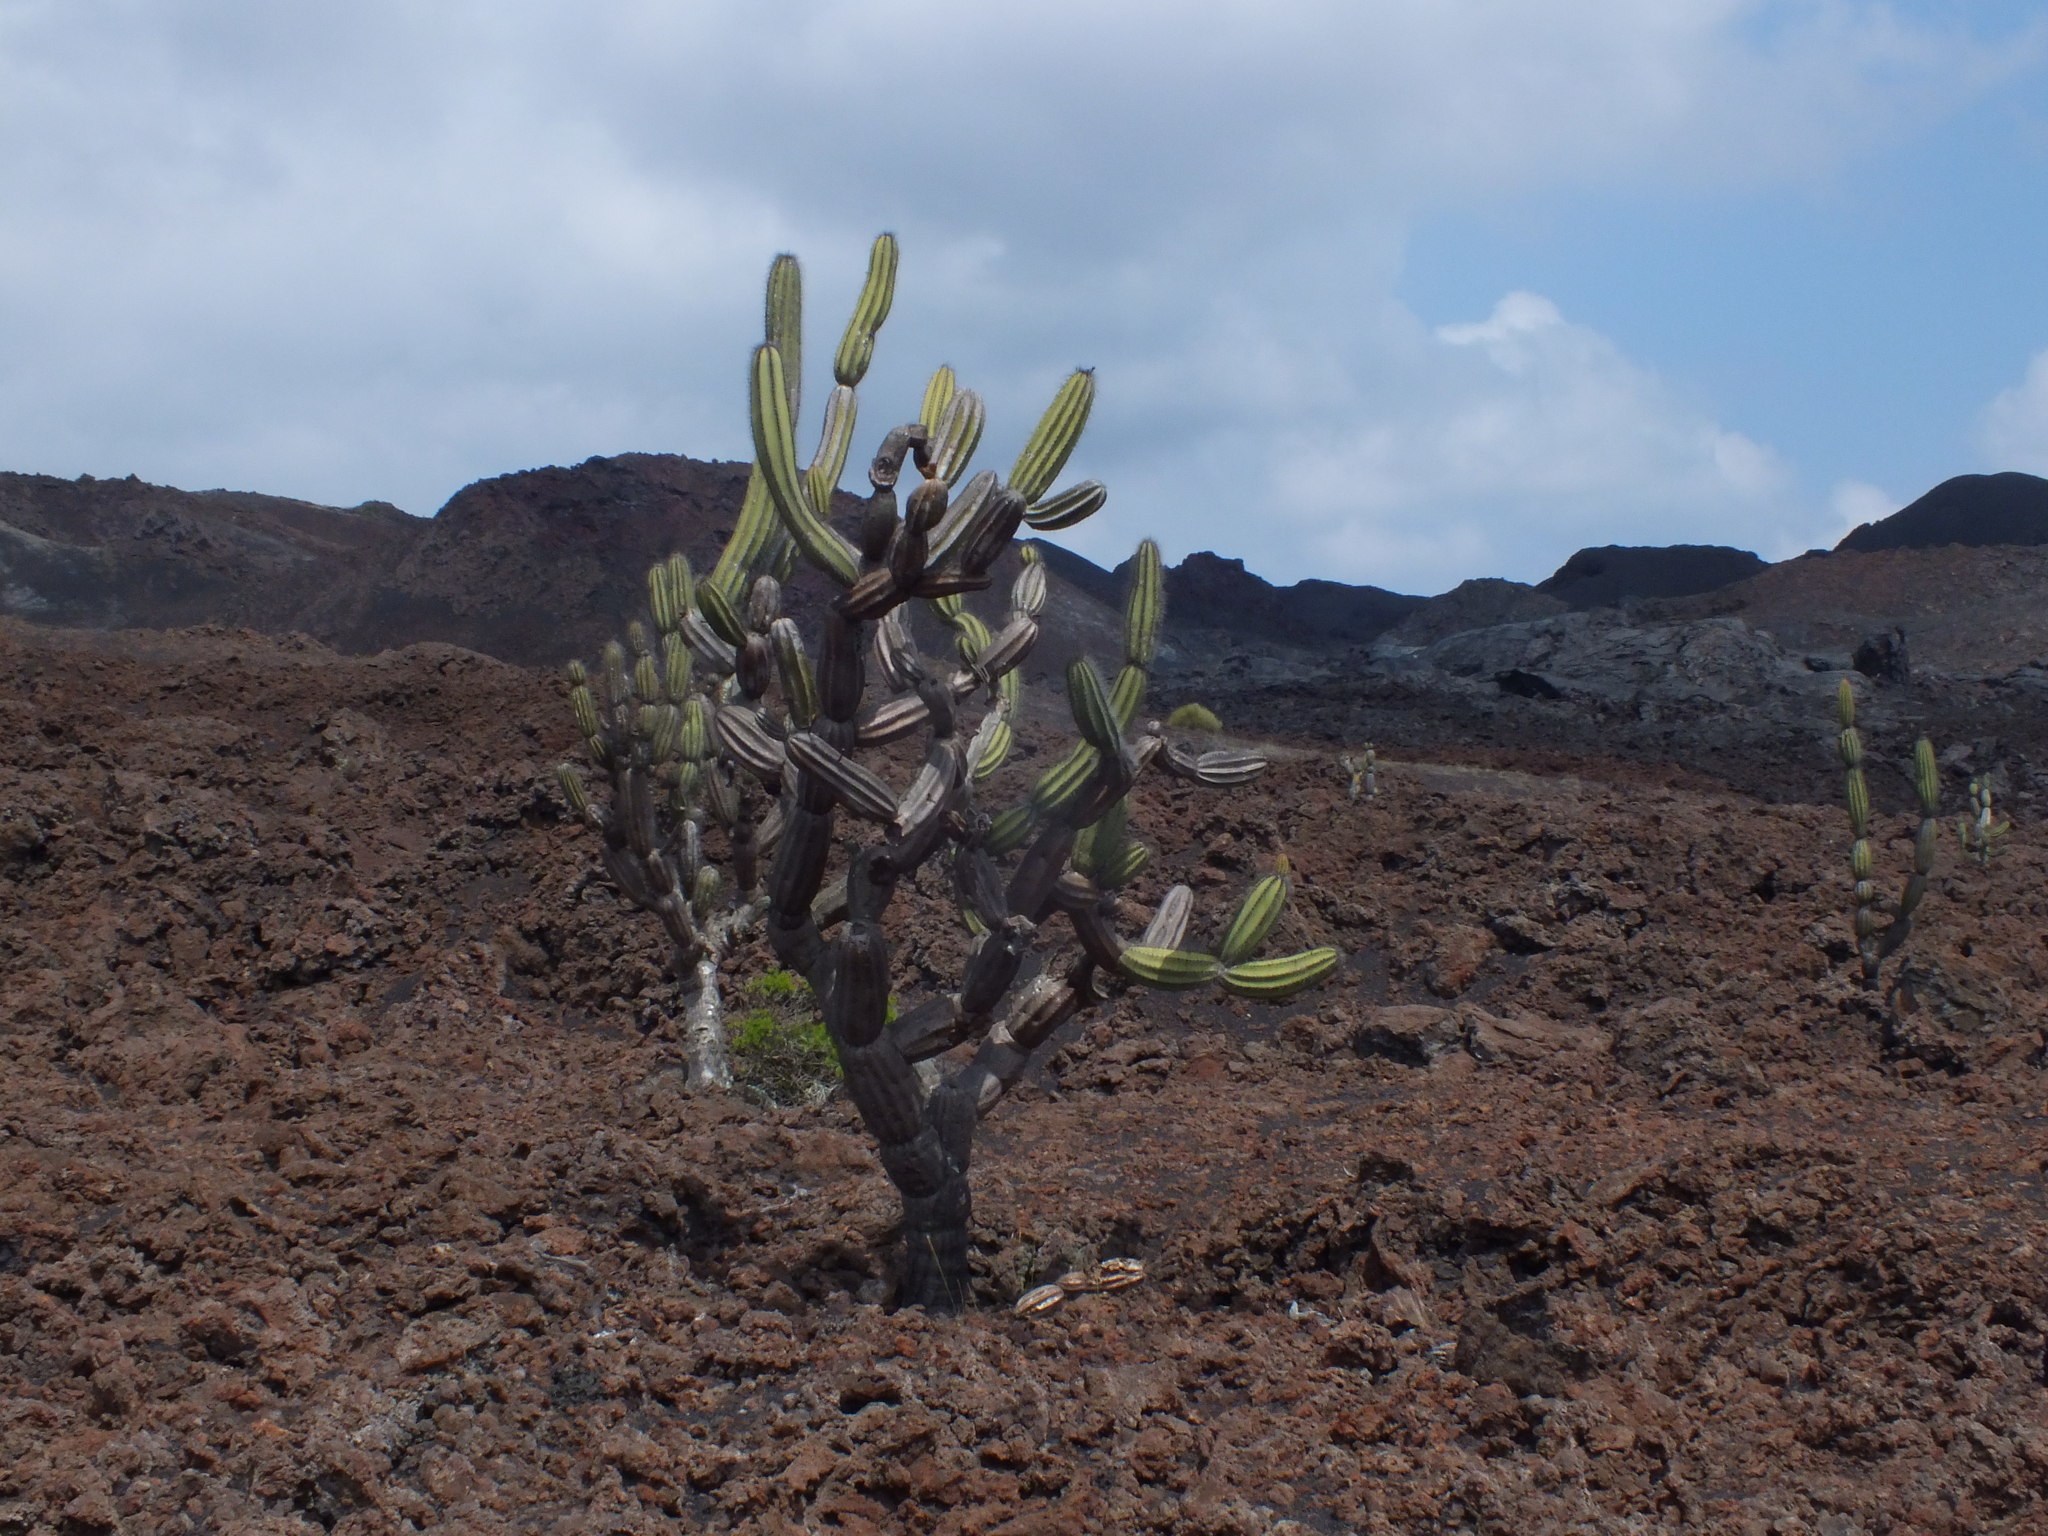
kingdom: Plantae
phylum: Tracheophyta
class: Magnoliopsida
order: Caryophyllales
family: Cactaceae
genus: Jasminocereus
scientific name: Jasminocereus thouarsii
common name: Candelabra cactus
